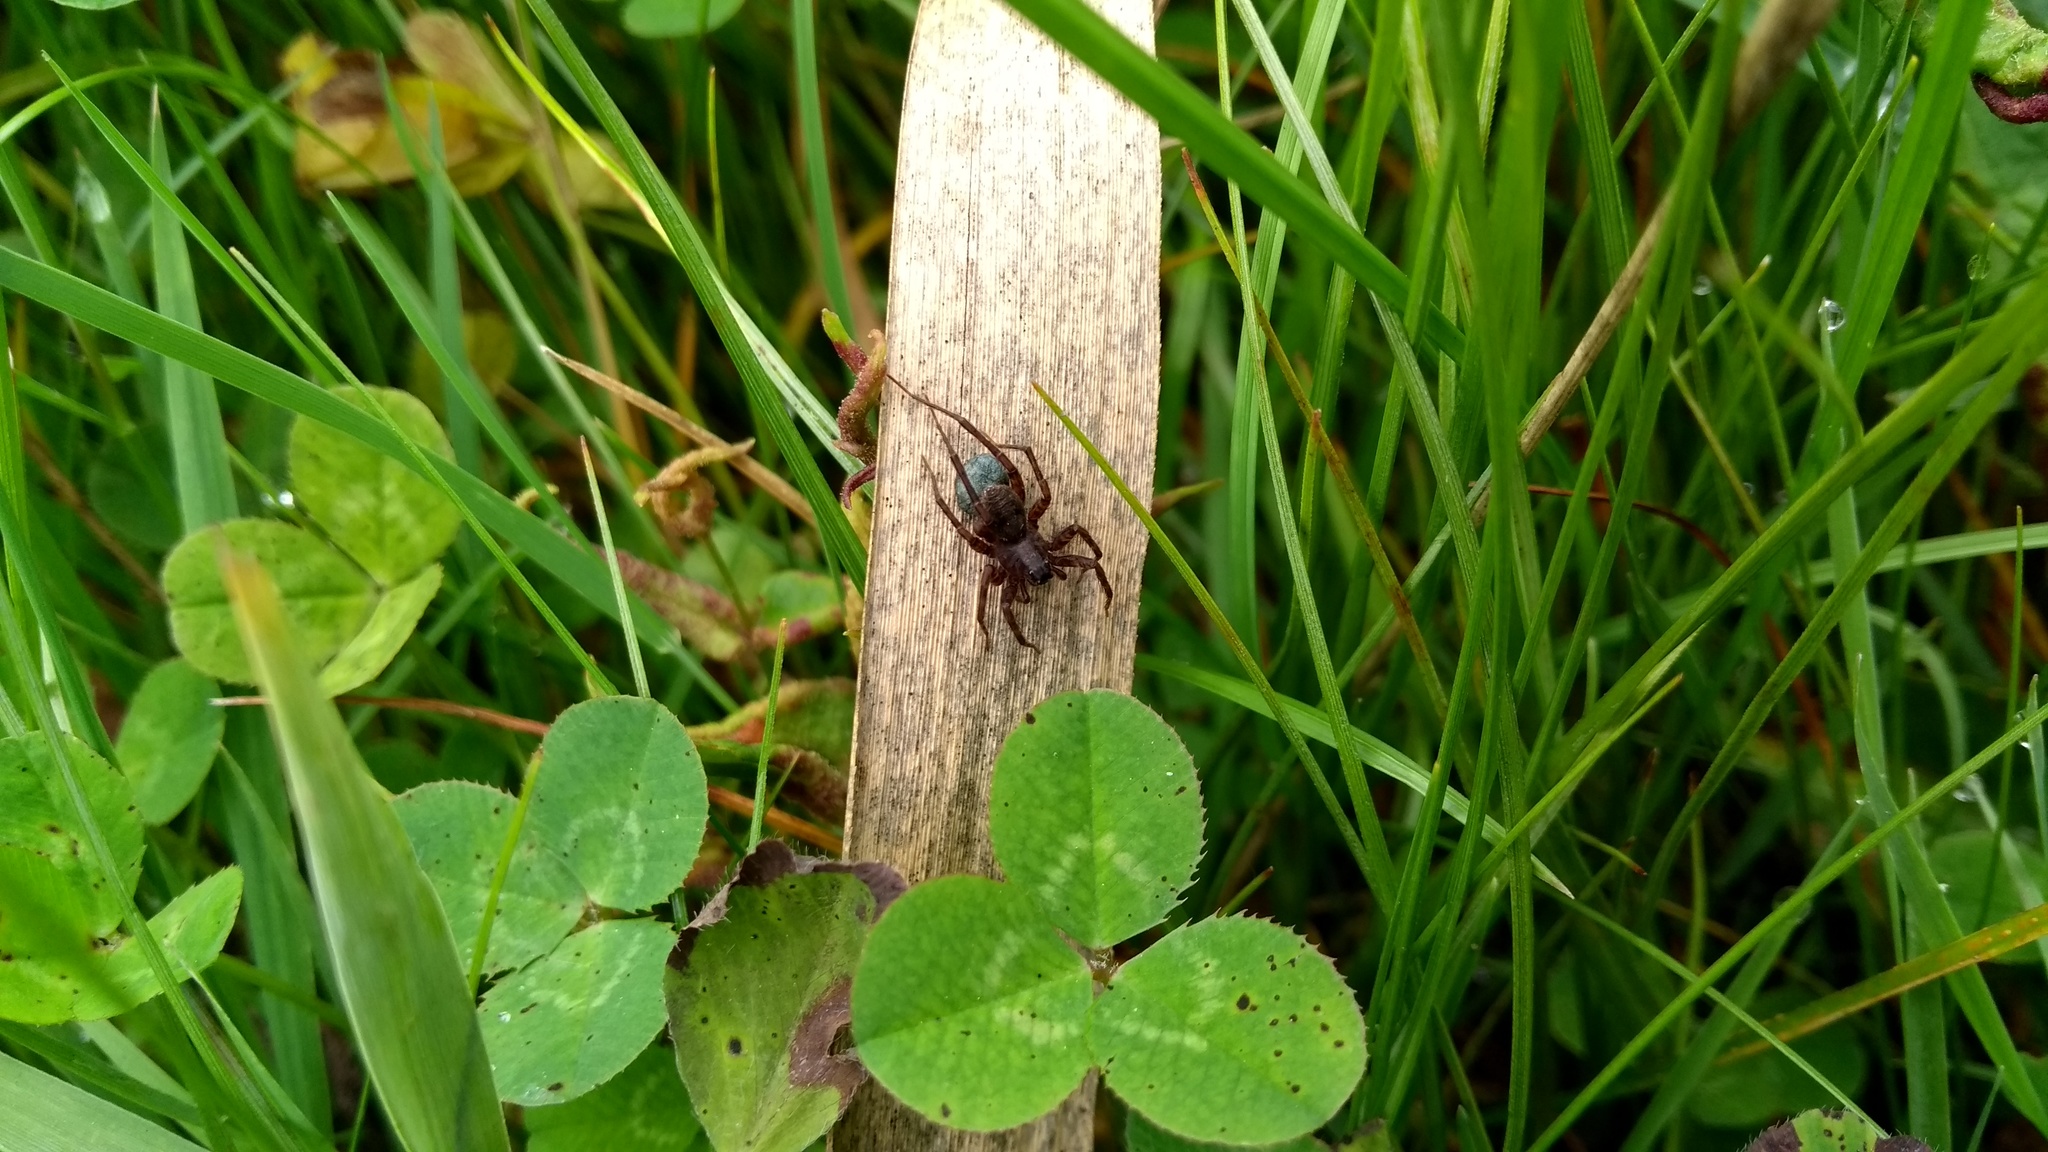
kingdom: Animalia
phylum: Arthropoda
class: Arachnida
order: Araneae
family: Lycosidae
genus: Pardosa
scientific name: Pardosa
